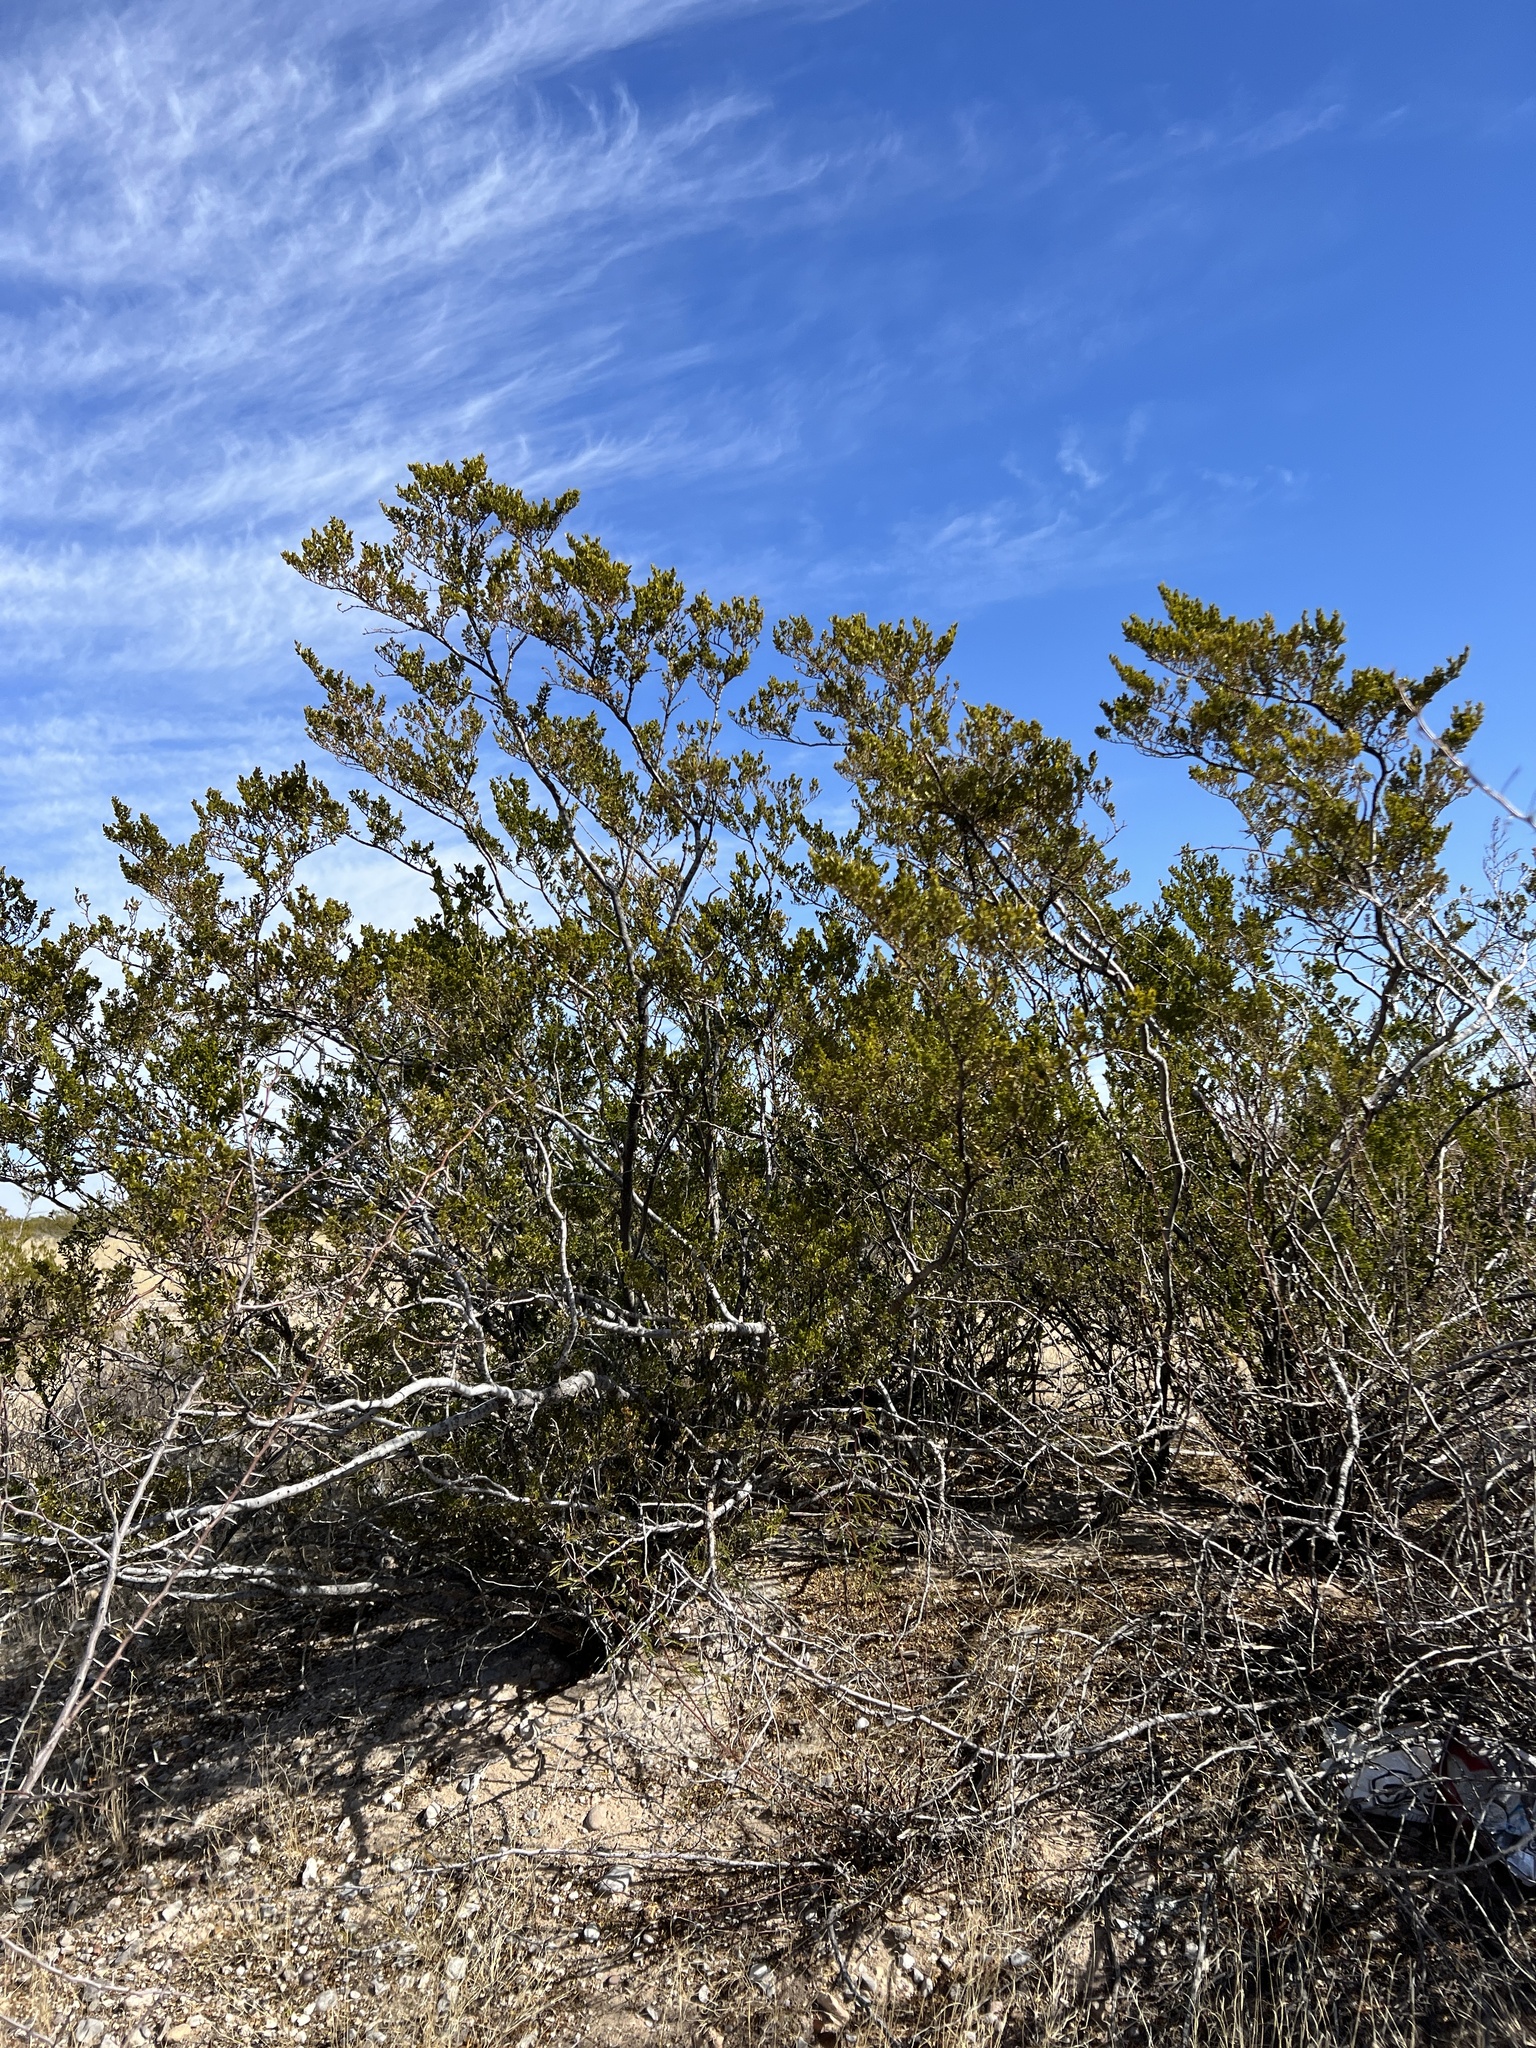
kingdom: Plantae
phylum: Tracheophyta
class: Magnoliopsida
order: Zygophyllales
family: Zygophyllaceae
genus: Larrea
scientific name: Larrea tridentata
